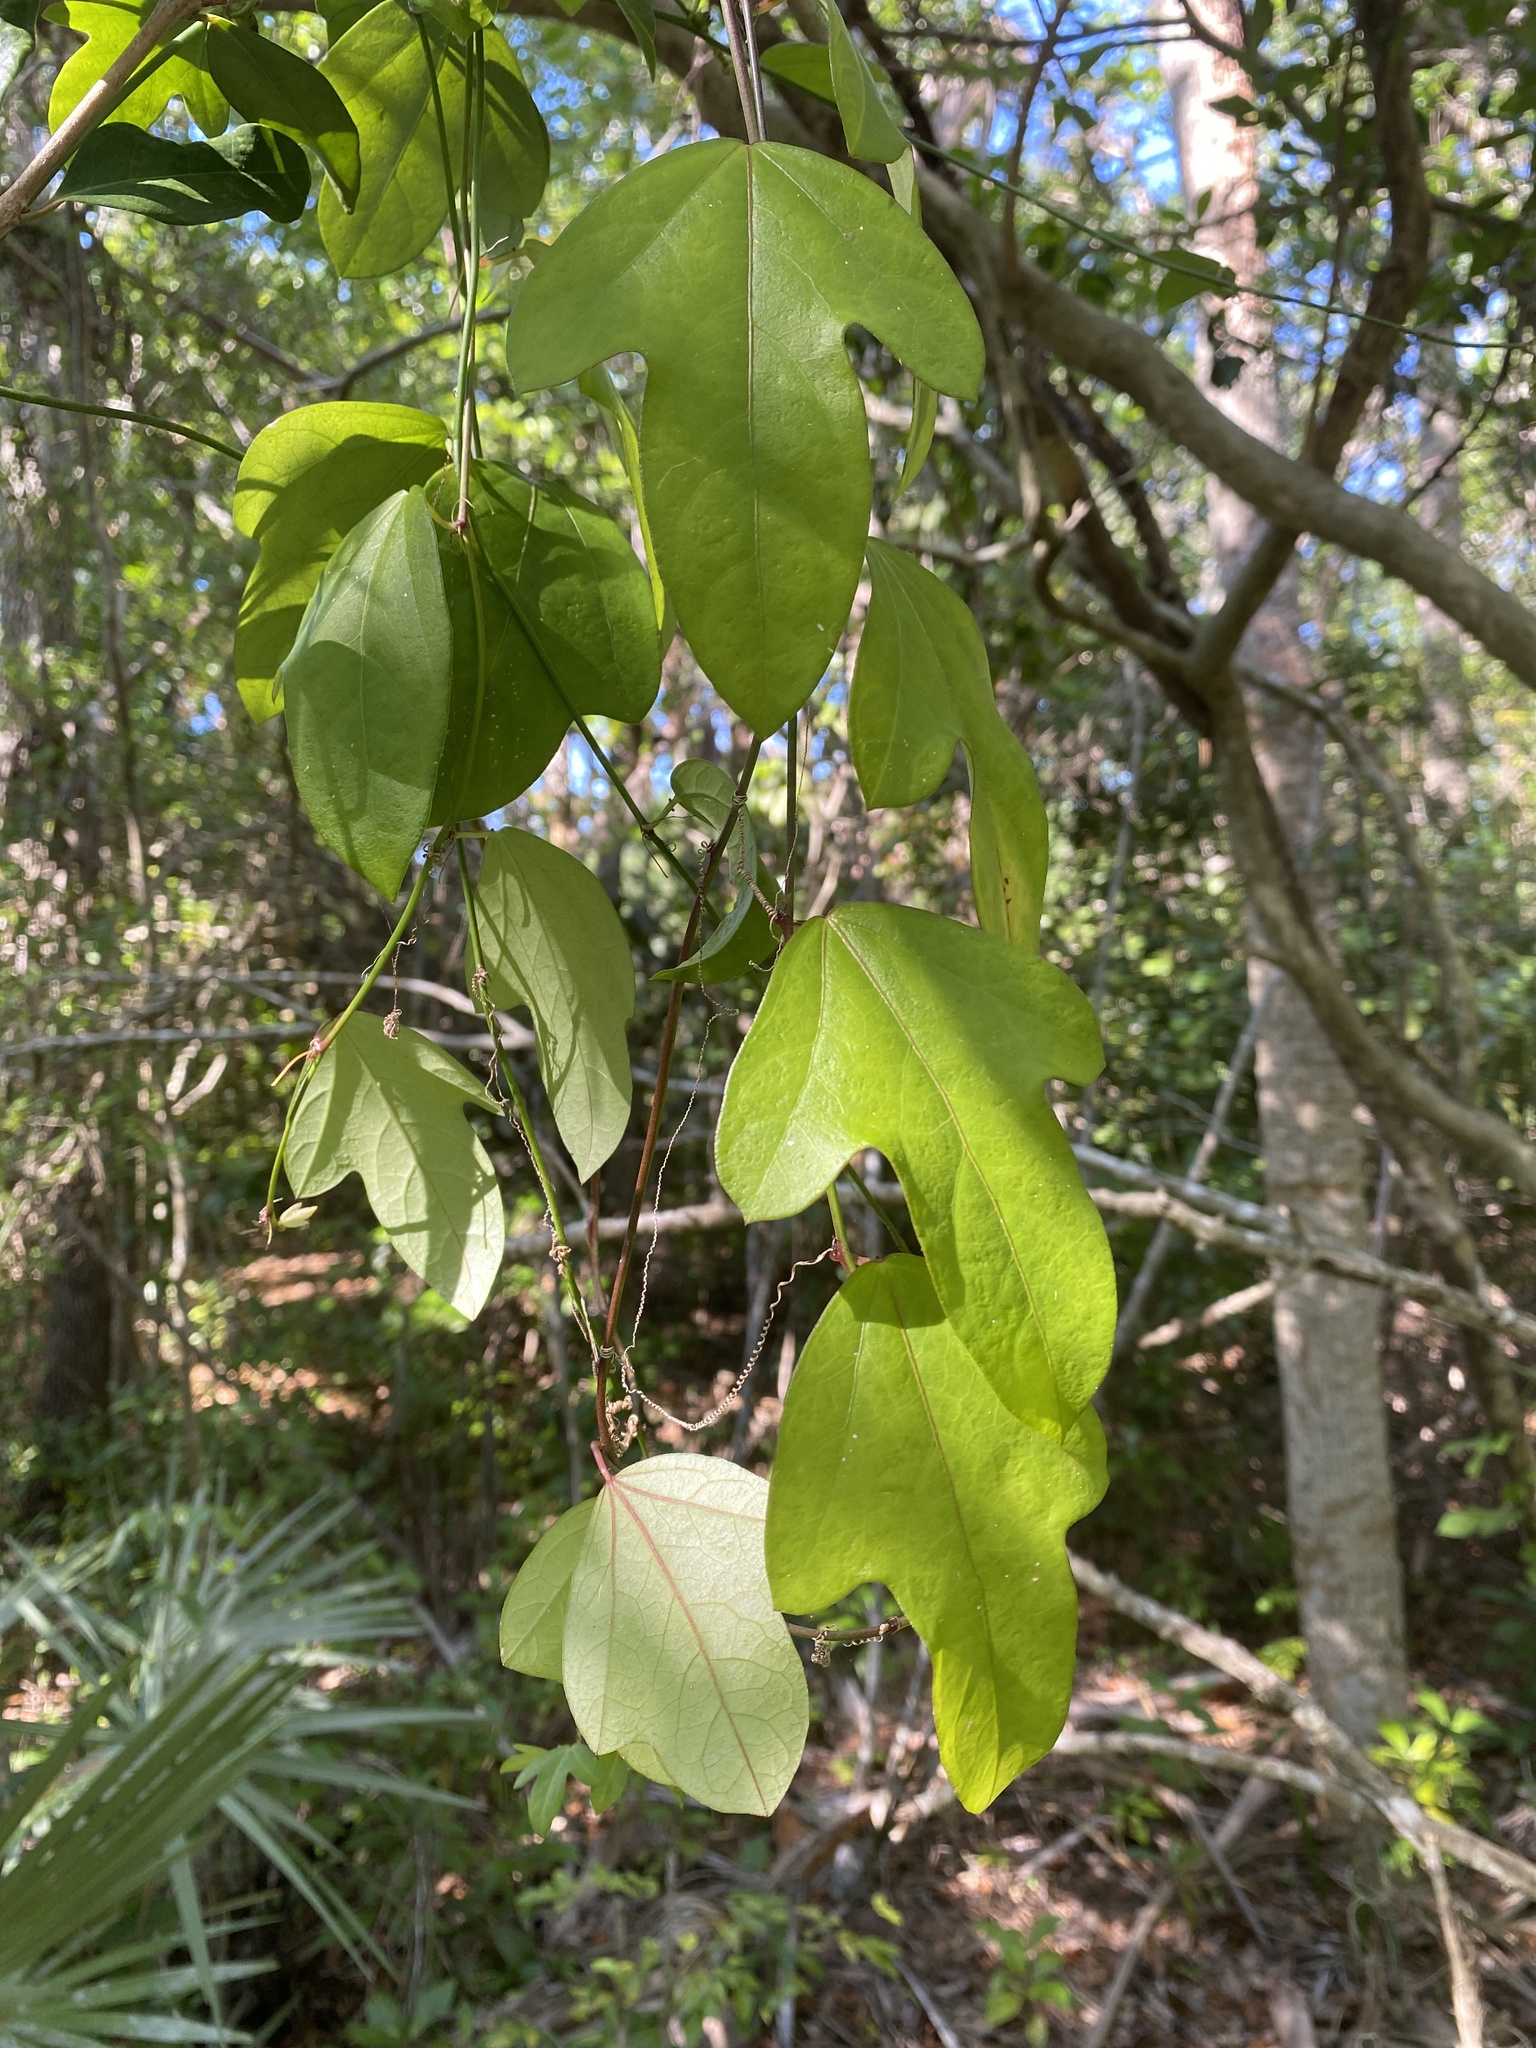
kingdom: Plantae
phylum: Tracheophyta
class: Magnoliopsida
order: Malpighiales
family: Passifloraceae
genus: Passiflora
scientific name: Passiflora pallida
